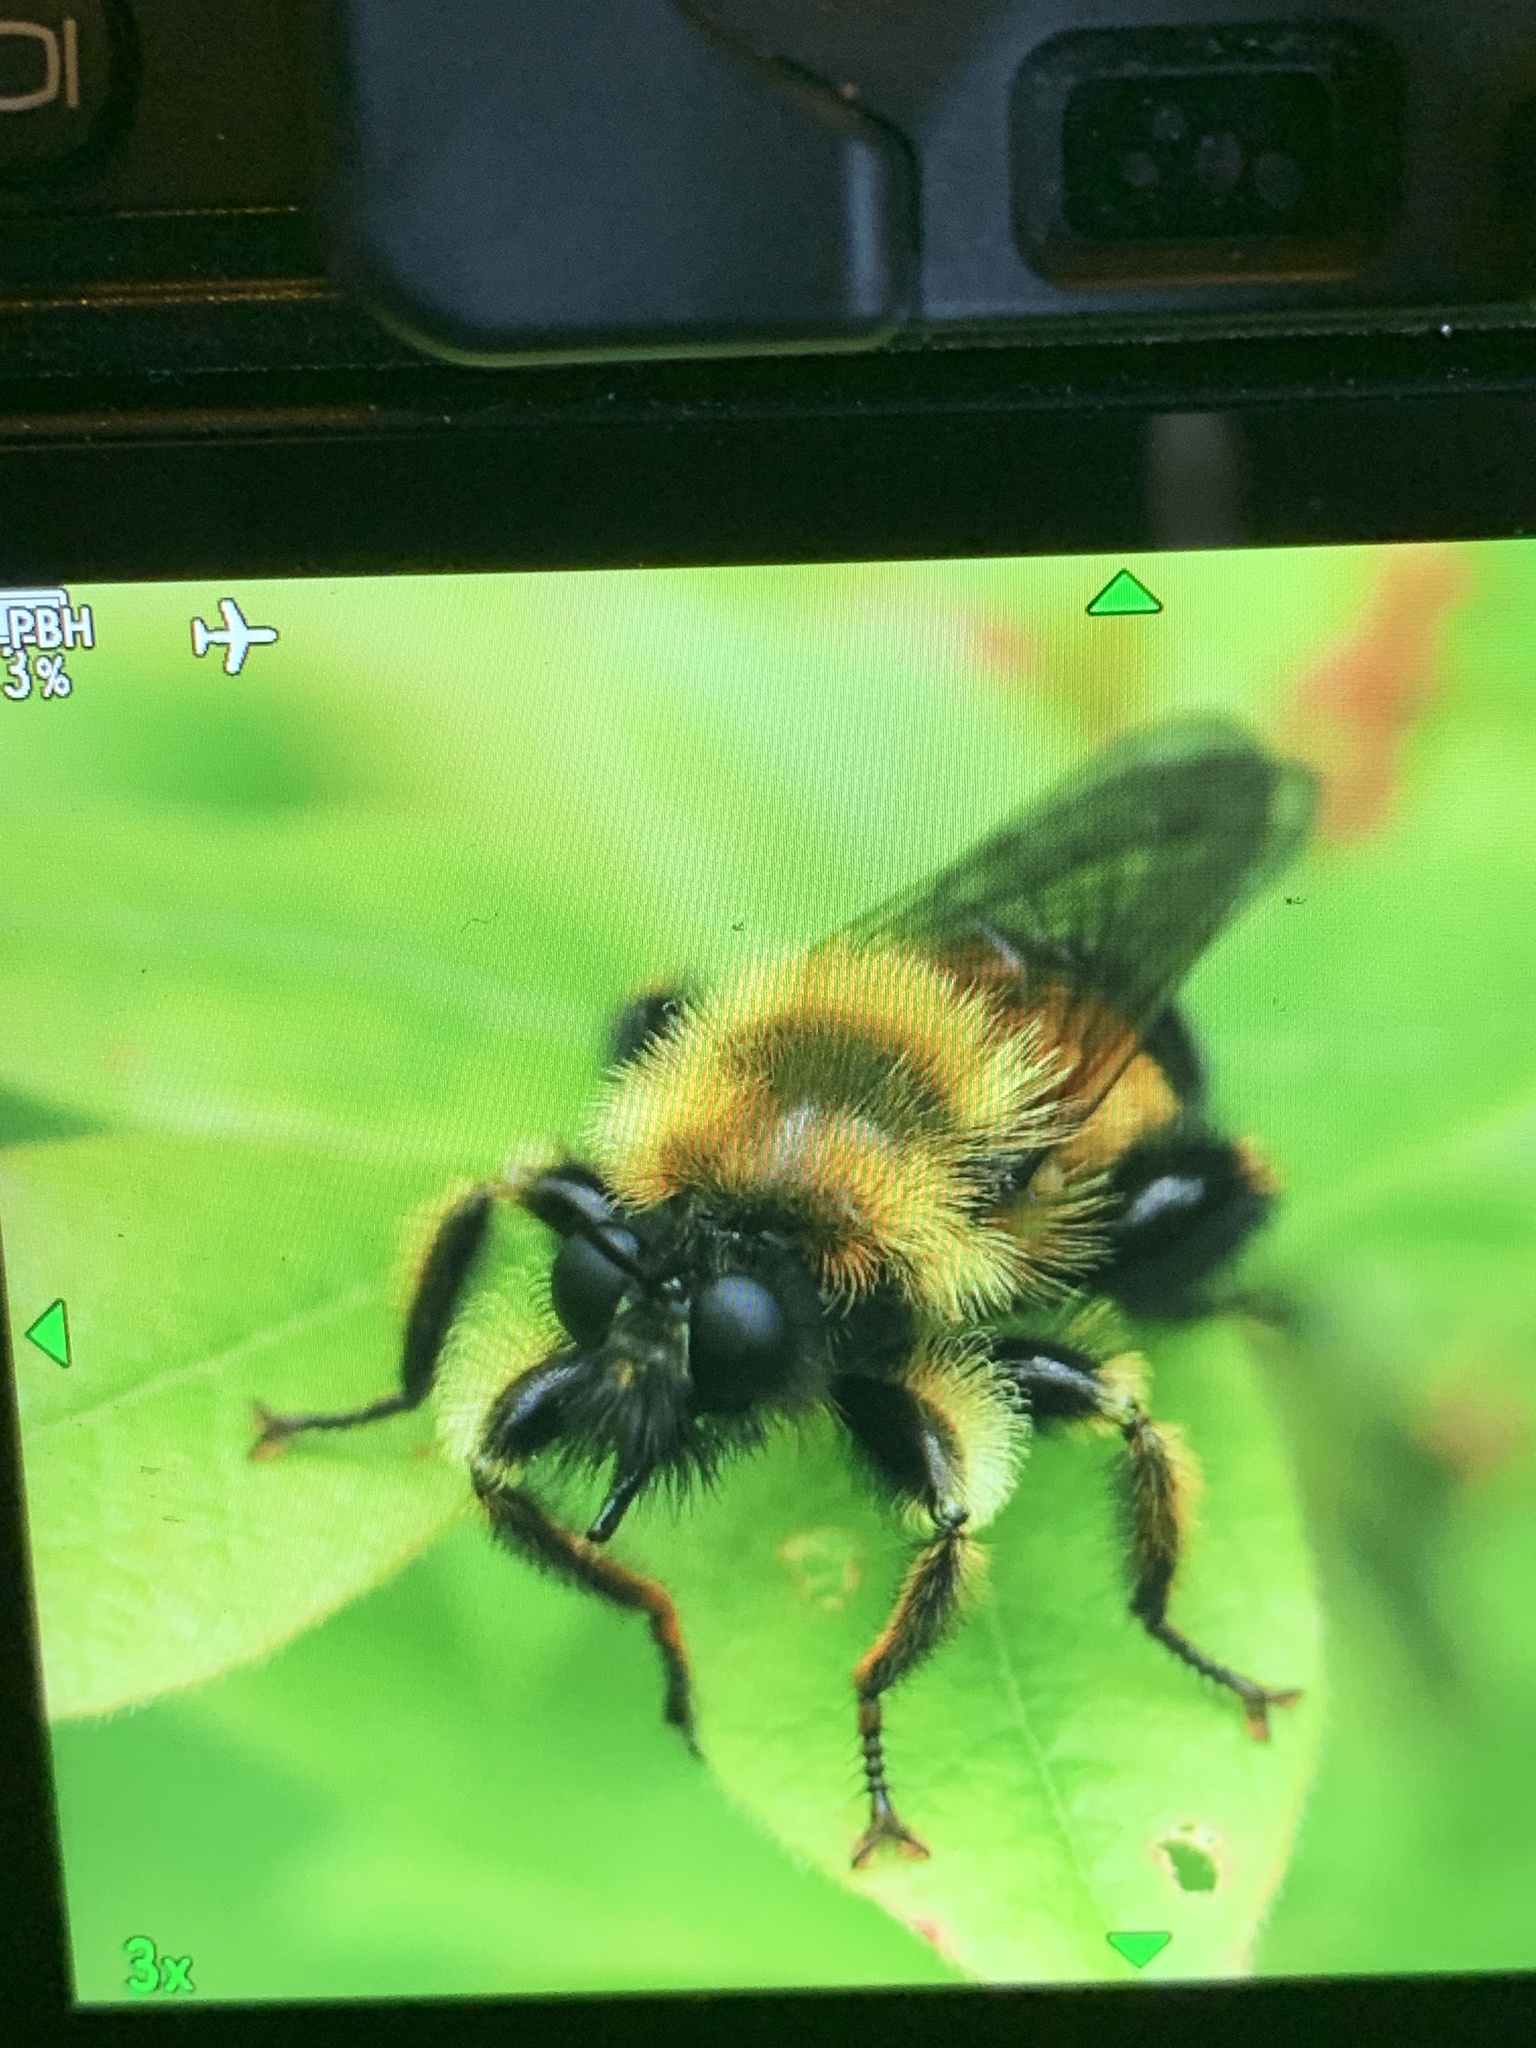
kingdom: Animalia
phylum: Arthropoda
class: Insecta
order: Diptera
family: Asilidae
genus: Laphria
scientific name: Laphria sacrator
